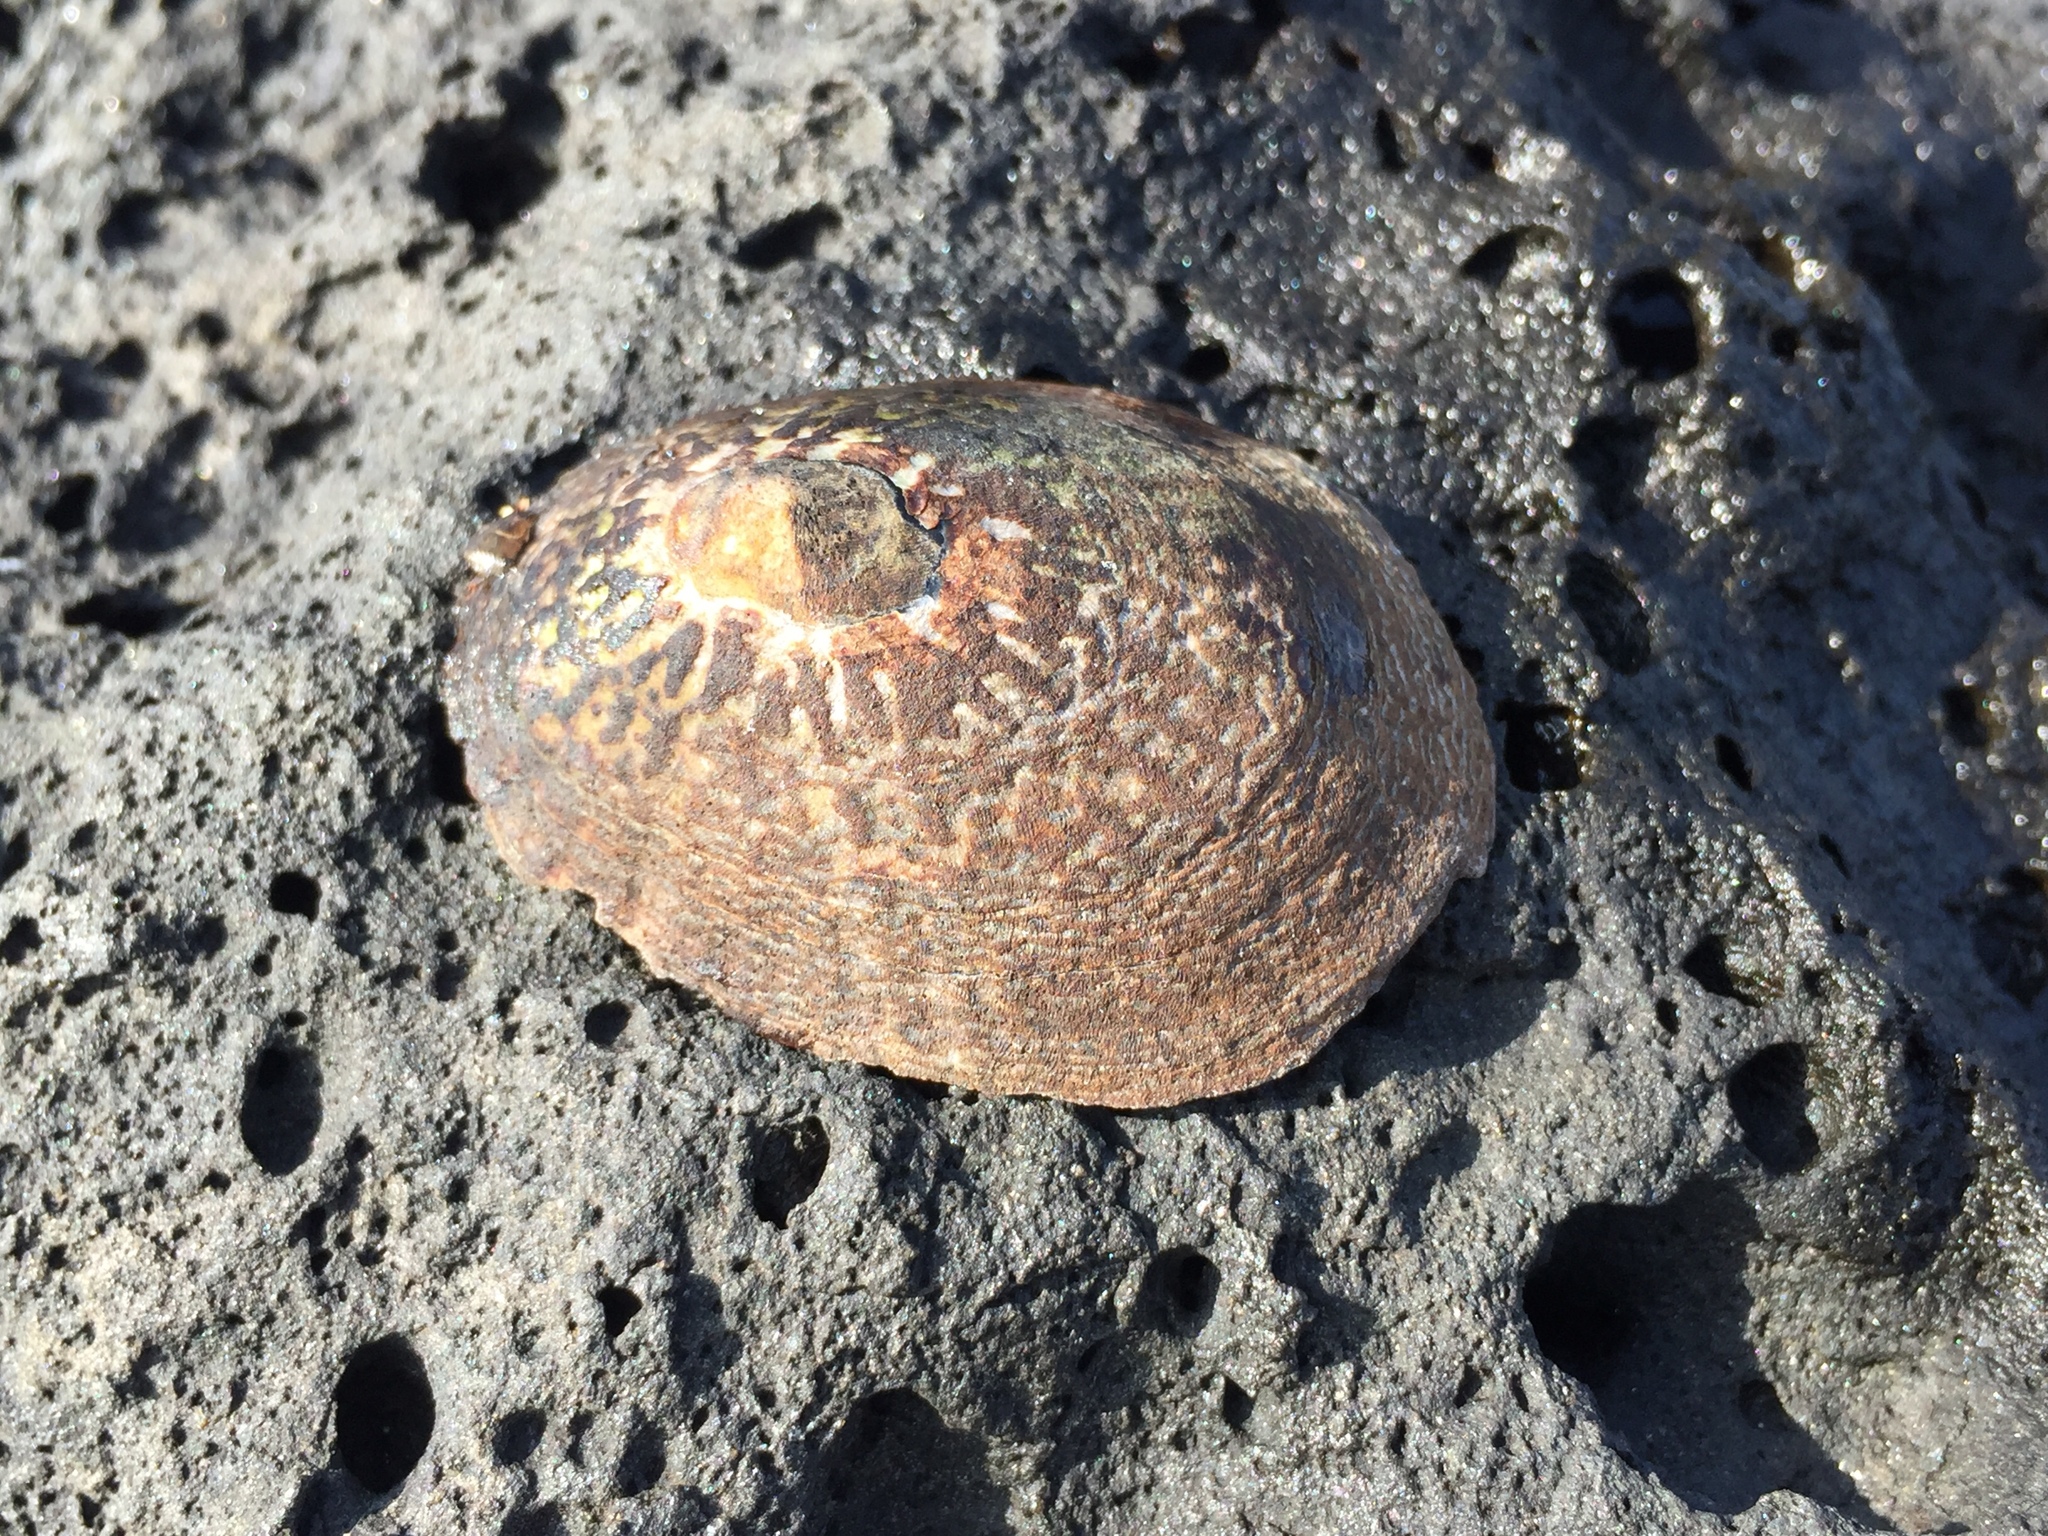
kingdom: Animalia
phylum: Mollusca
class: Gastropoda
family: Nacellidae
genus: Cellana
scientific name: Cellana nigrolineata
